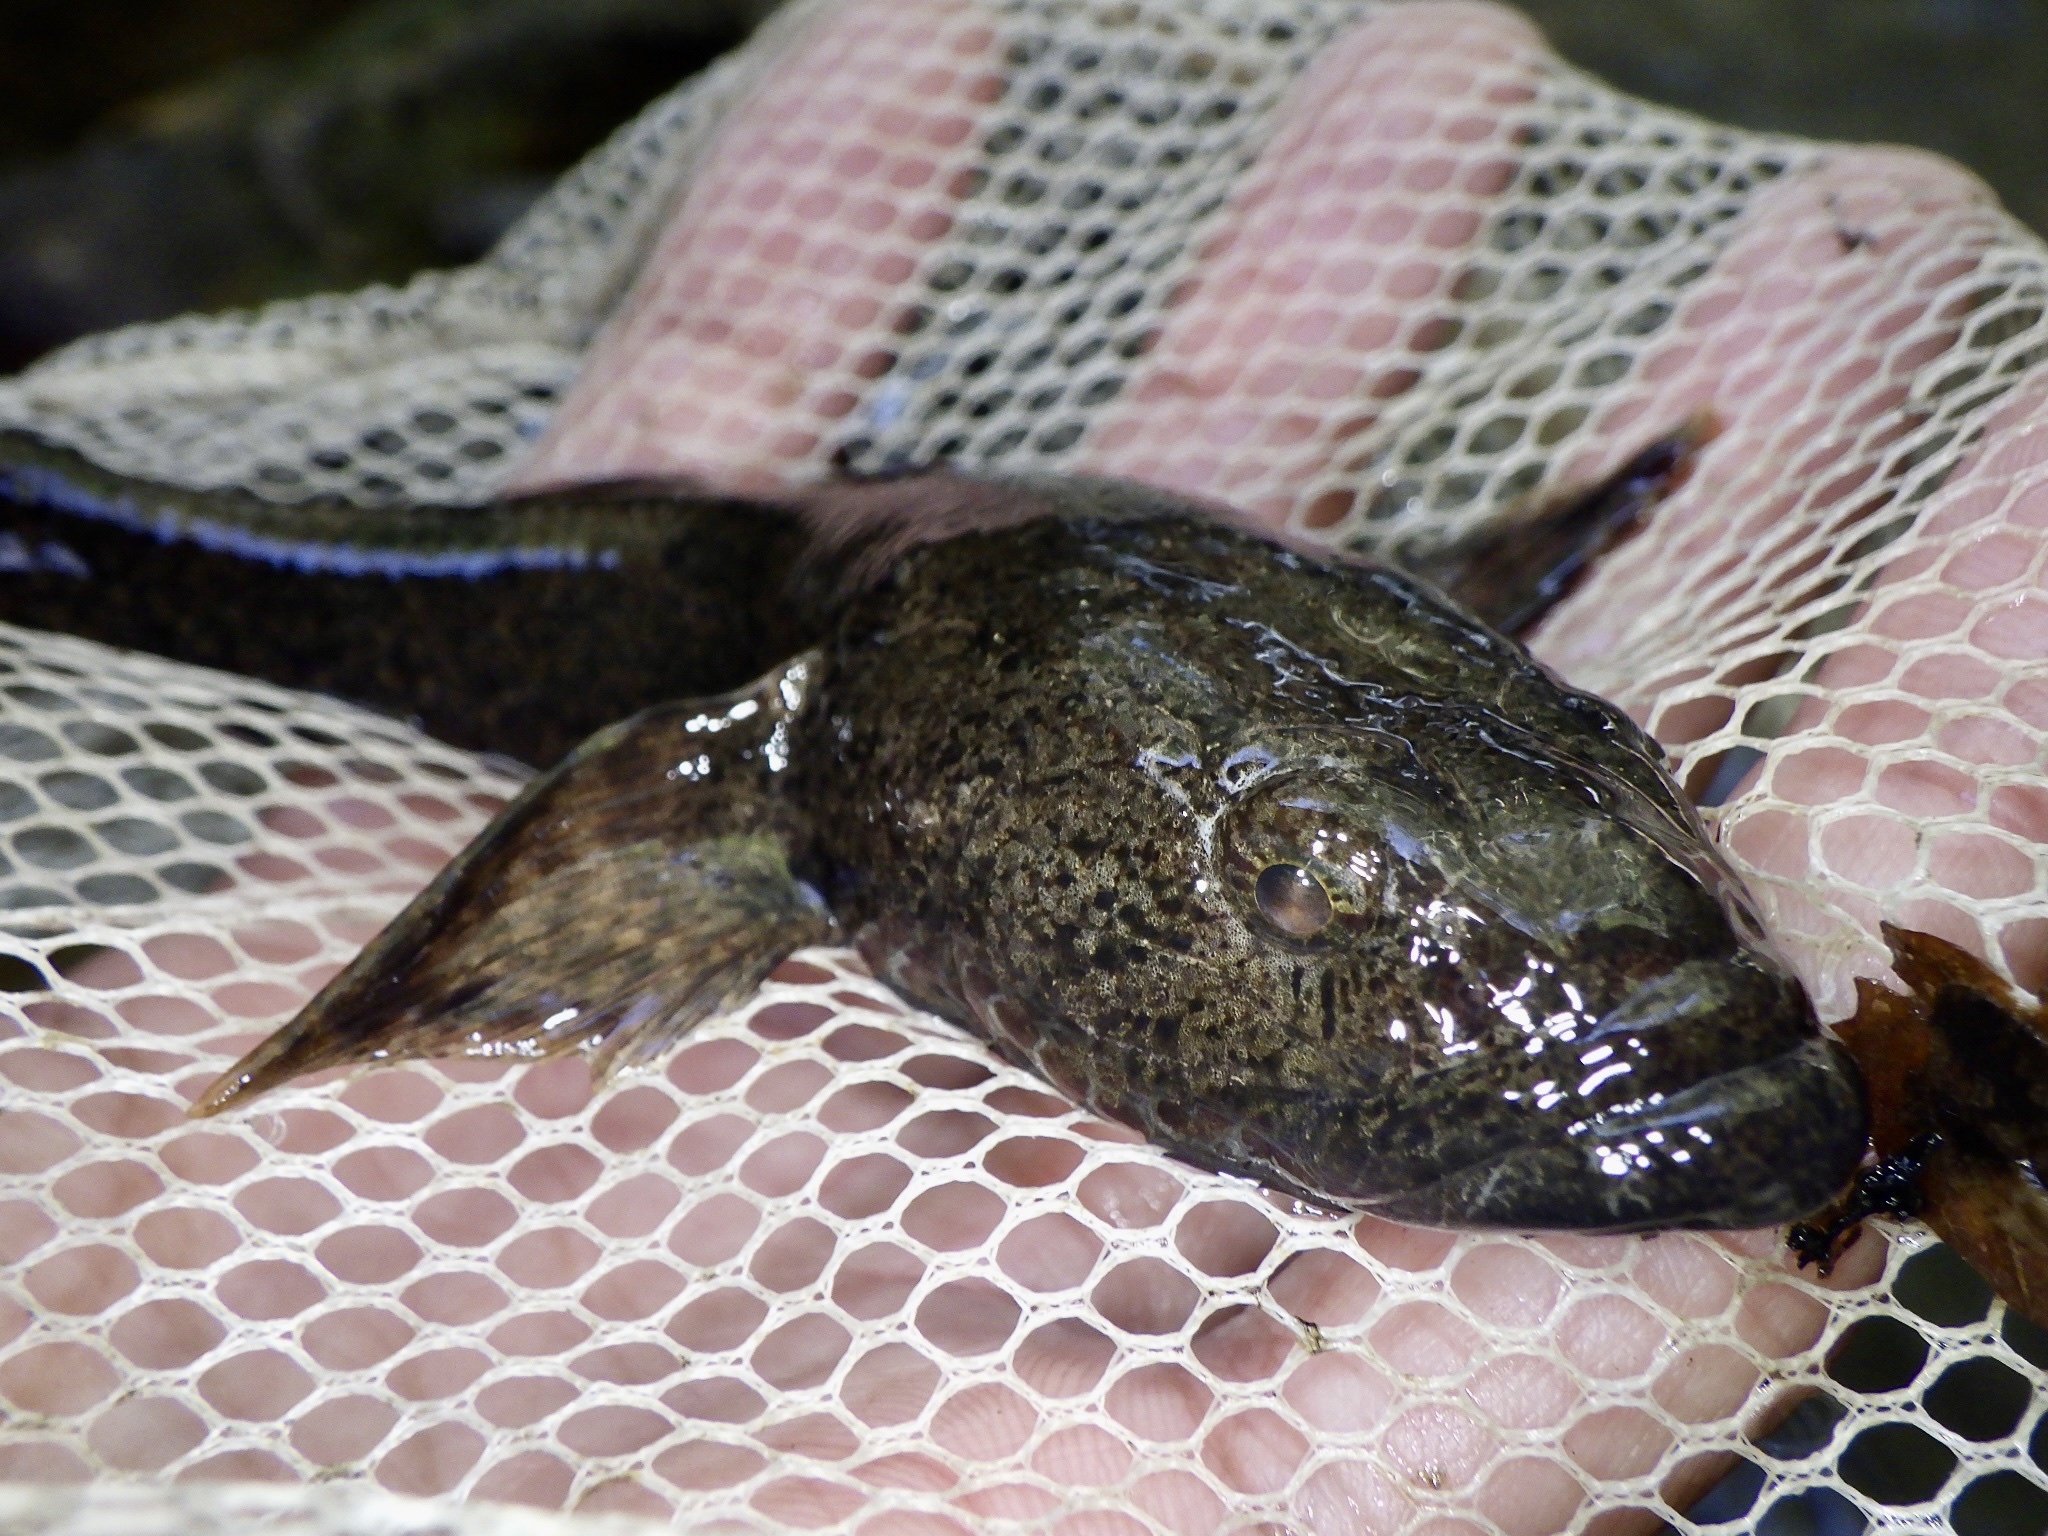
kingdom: Animalia
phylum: Chordata
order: Perciformes
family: Odontobutidae
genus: Odontobutis
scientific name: Odontobutis obscura
